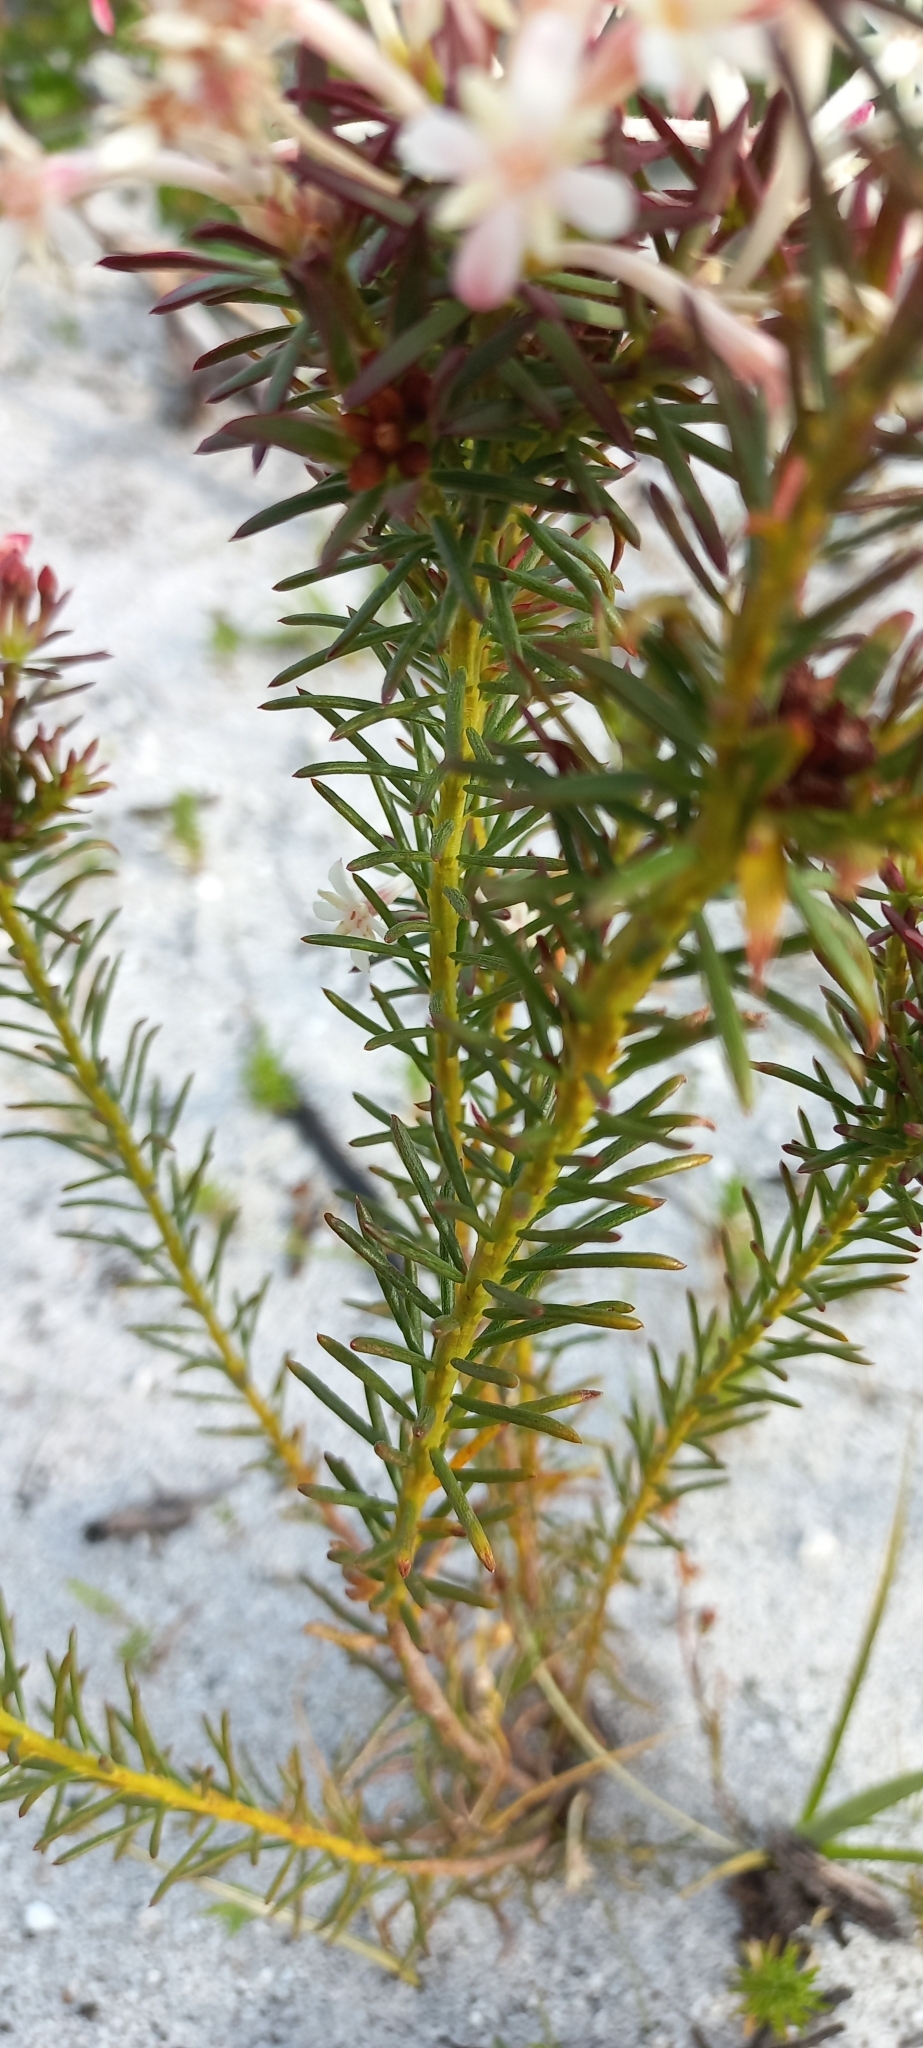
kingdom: Plantae
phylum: Tracheophyta
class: Magnoliopsida
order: Malvales
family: Thymelaeaceae
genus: Gnidia
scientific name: Gnidia pinifolia
